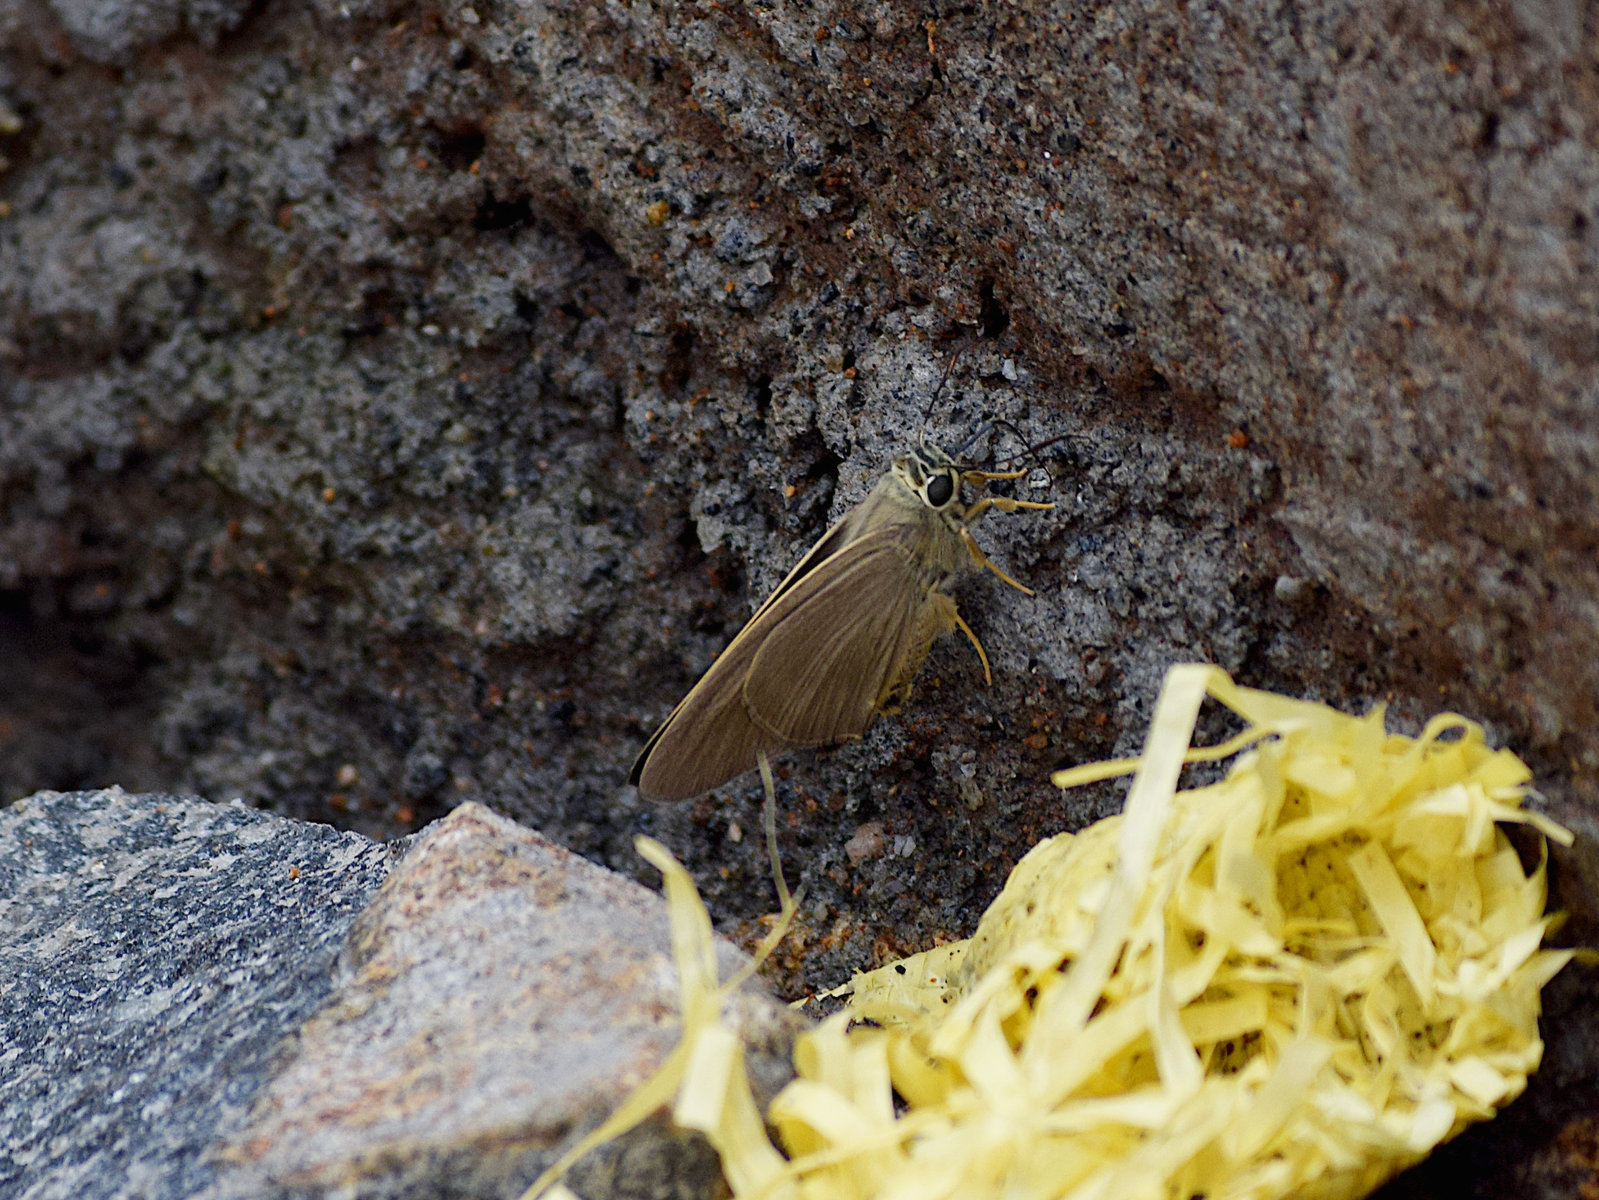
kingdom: Animalia
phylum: Arthropoda
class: Insecta
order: Lepidoptera
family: Hesperiidae
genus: Badamia
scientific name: Badamia exclamationis
